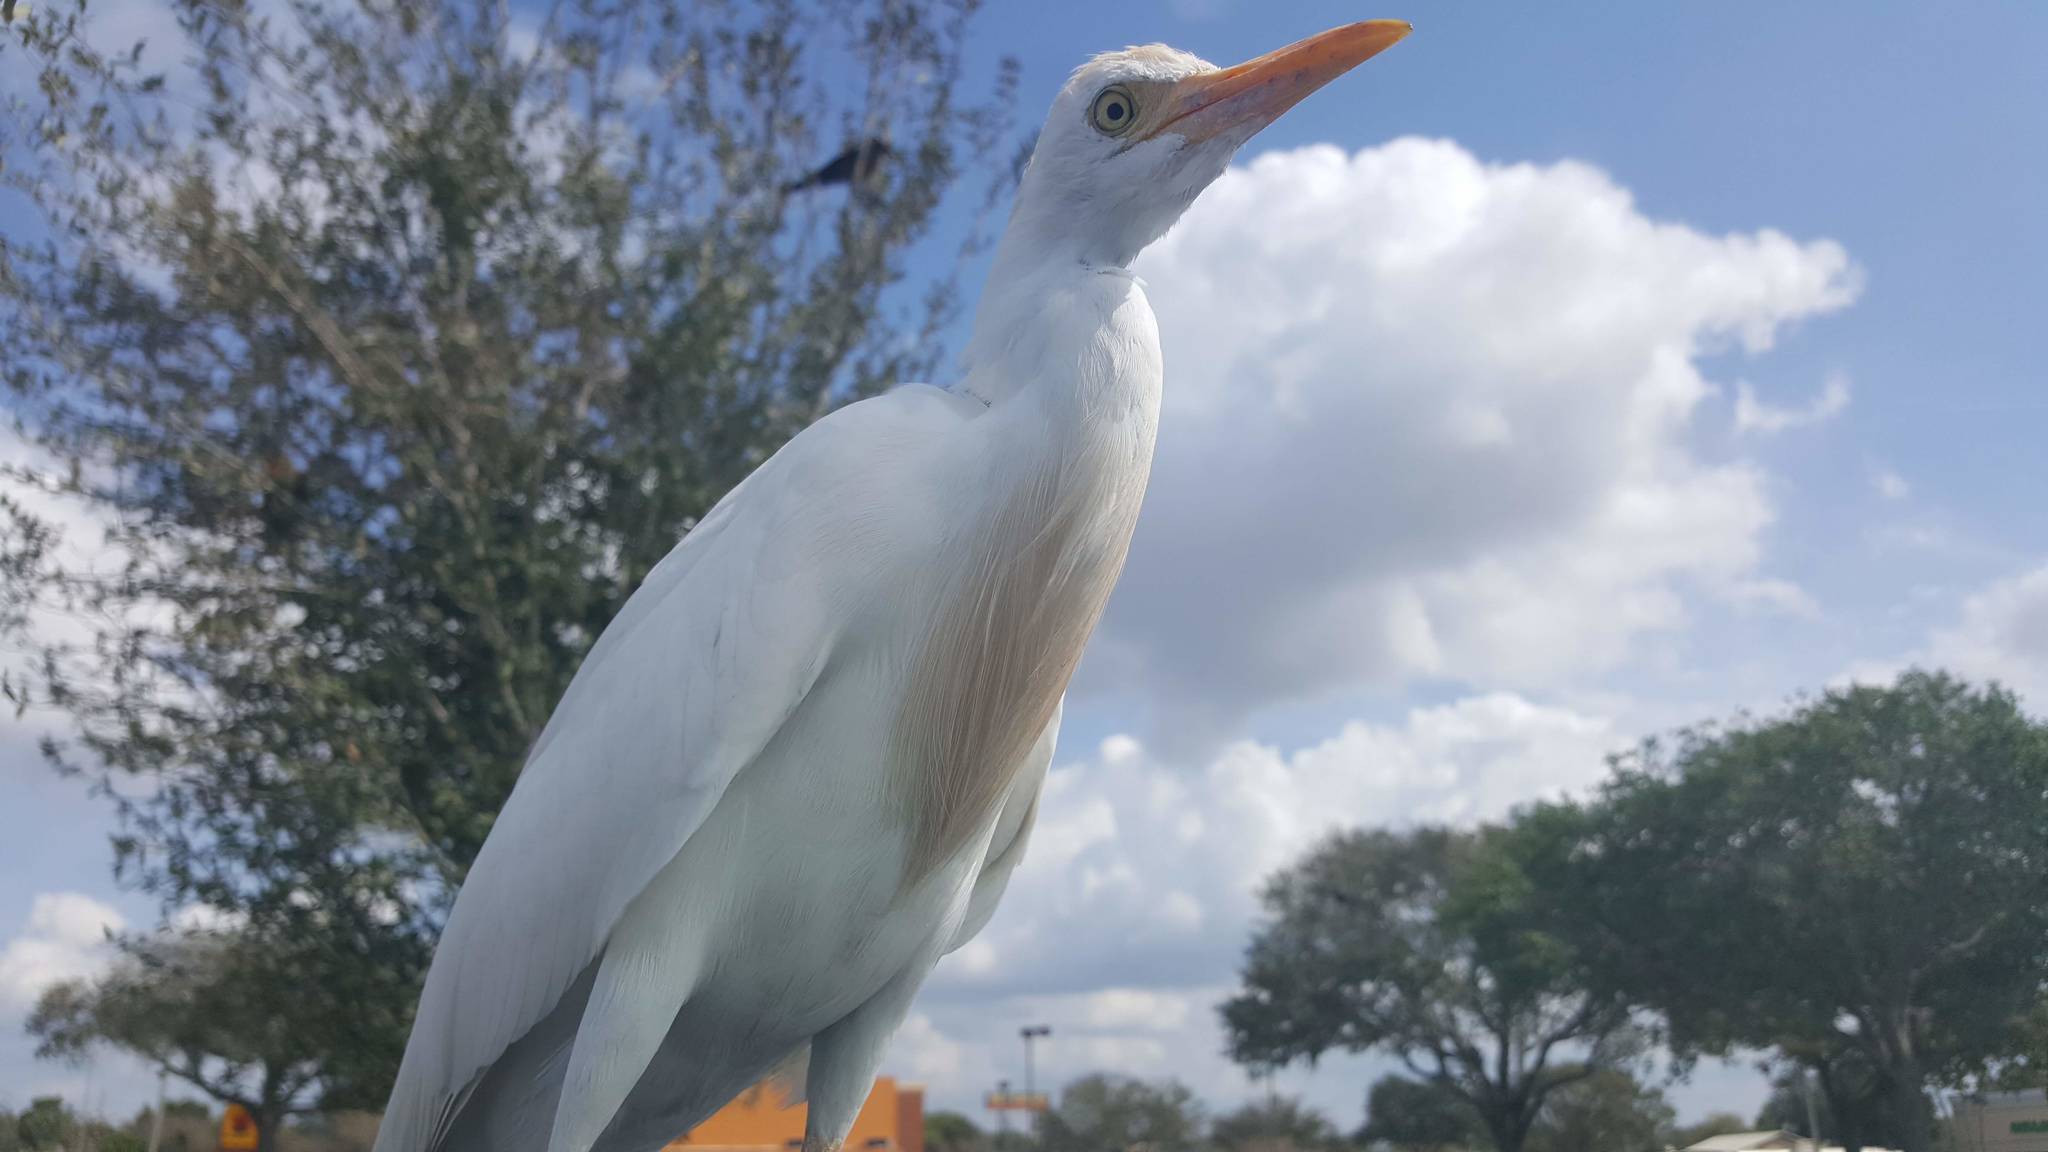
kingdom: Animalia
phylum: Chordata
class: Aves
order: Pelecaniformes
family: Ardeidae
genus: Bubulcus
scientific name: Bubulcus ibis
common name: Cattle egret
